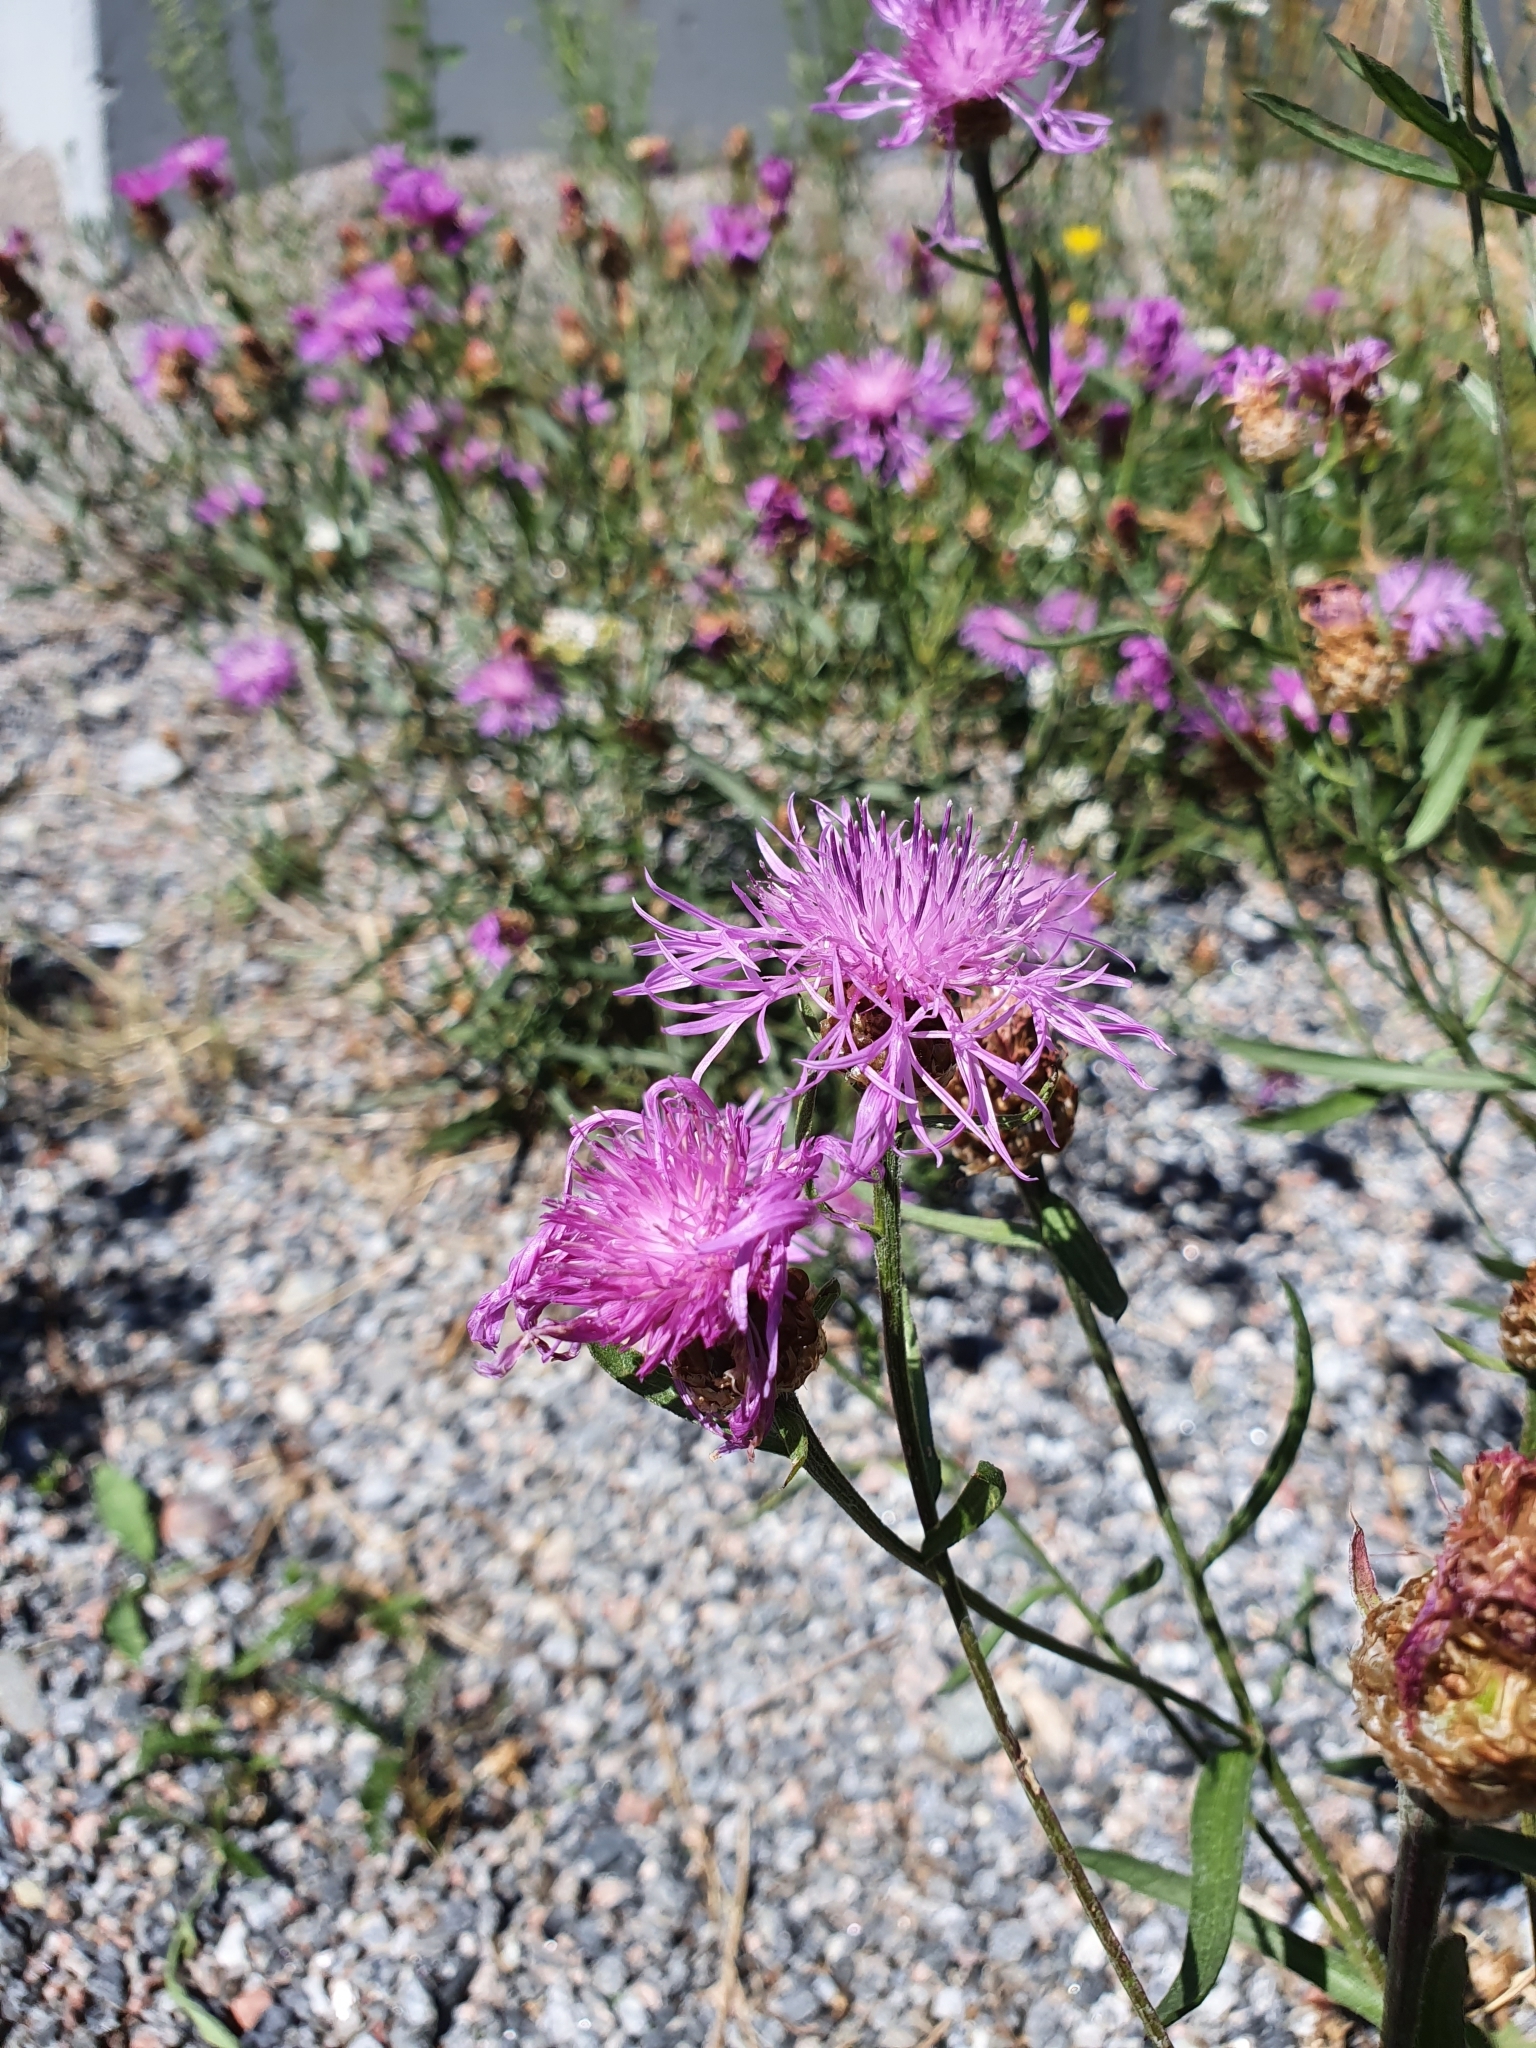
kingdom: Plantae
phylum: Tracheophyta
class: Magnoliopsida
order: Asterales
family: Asteraceae
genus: Centaurea
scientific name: Centaurea scabiosa
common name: Greater knapweed
